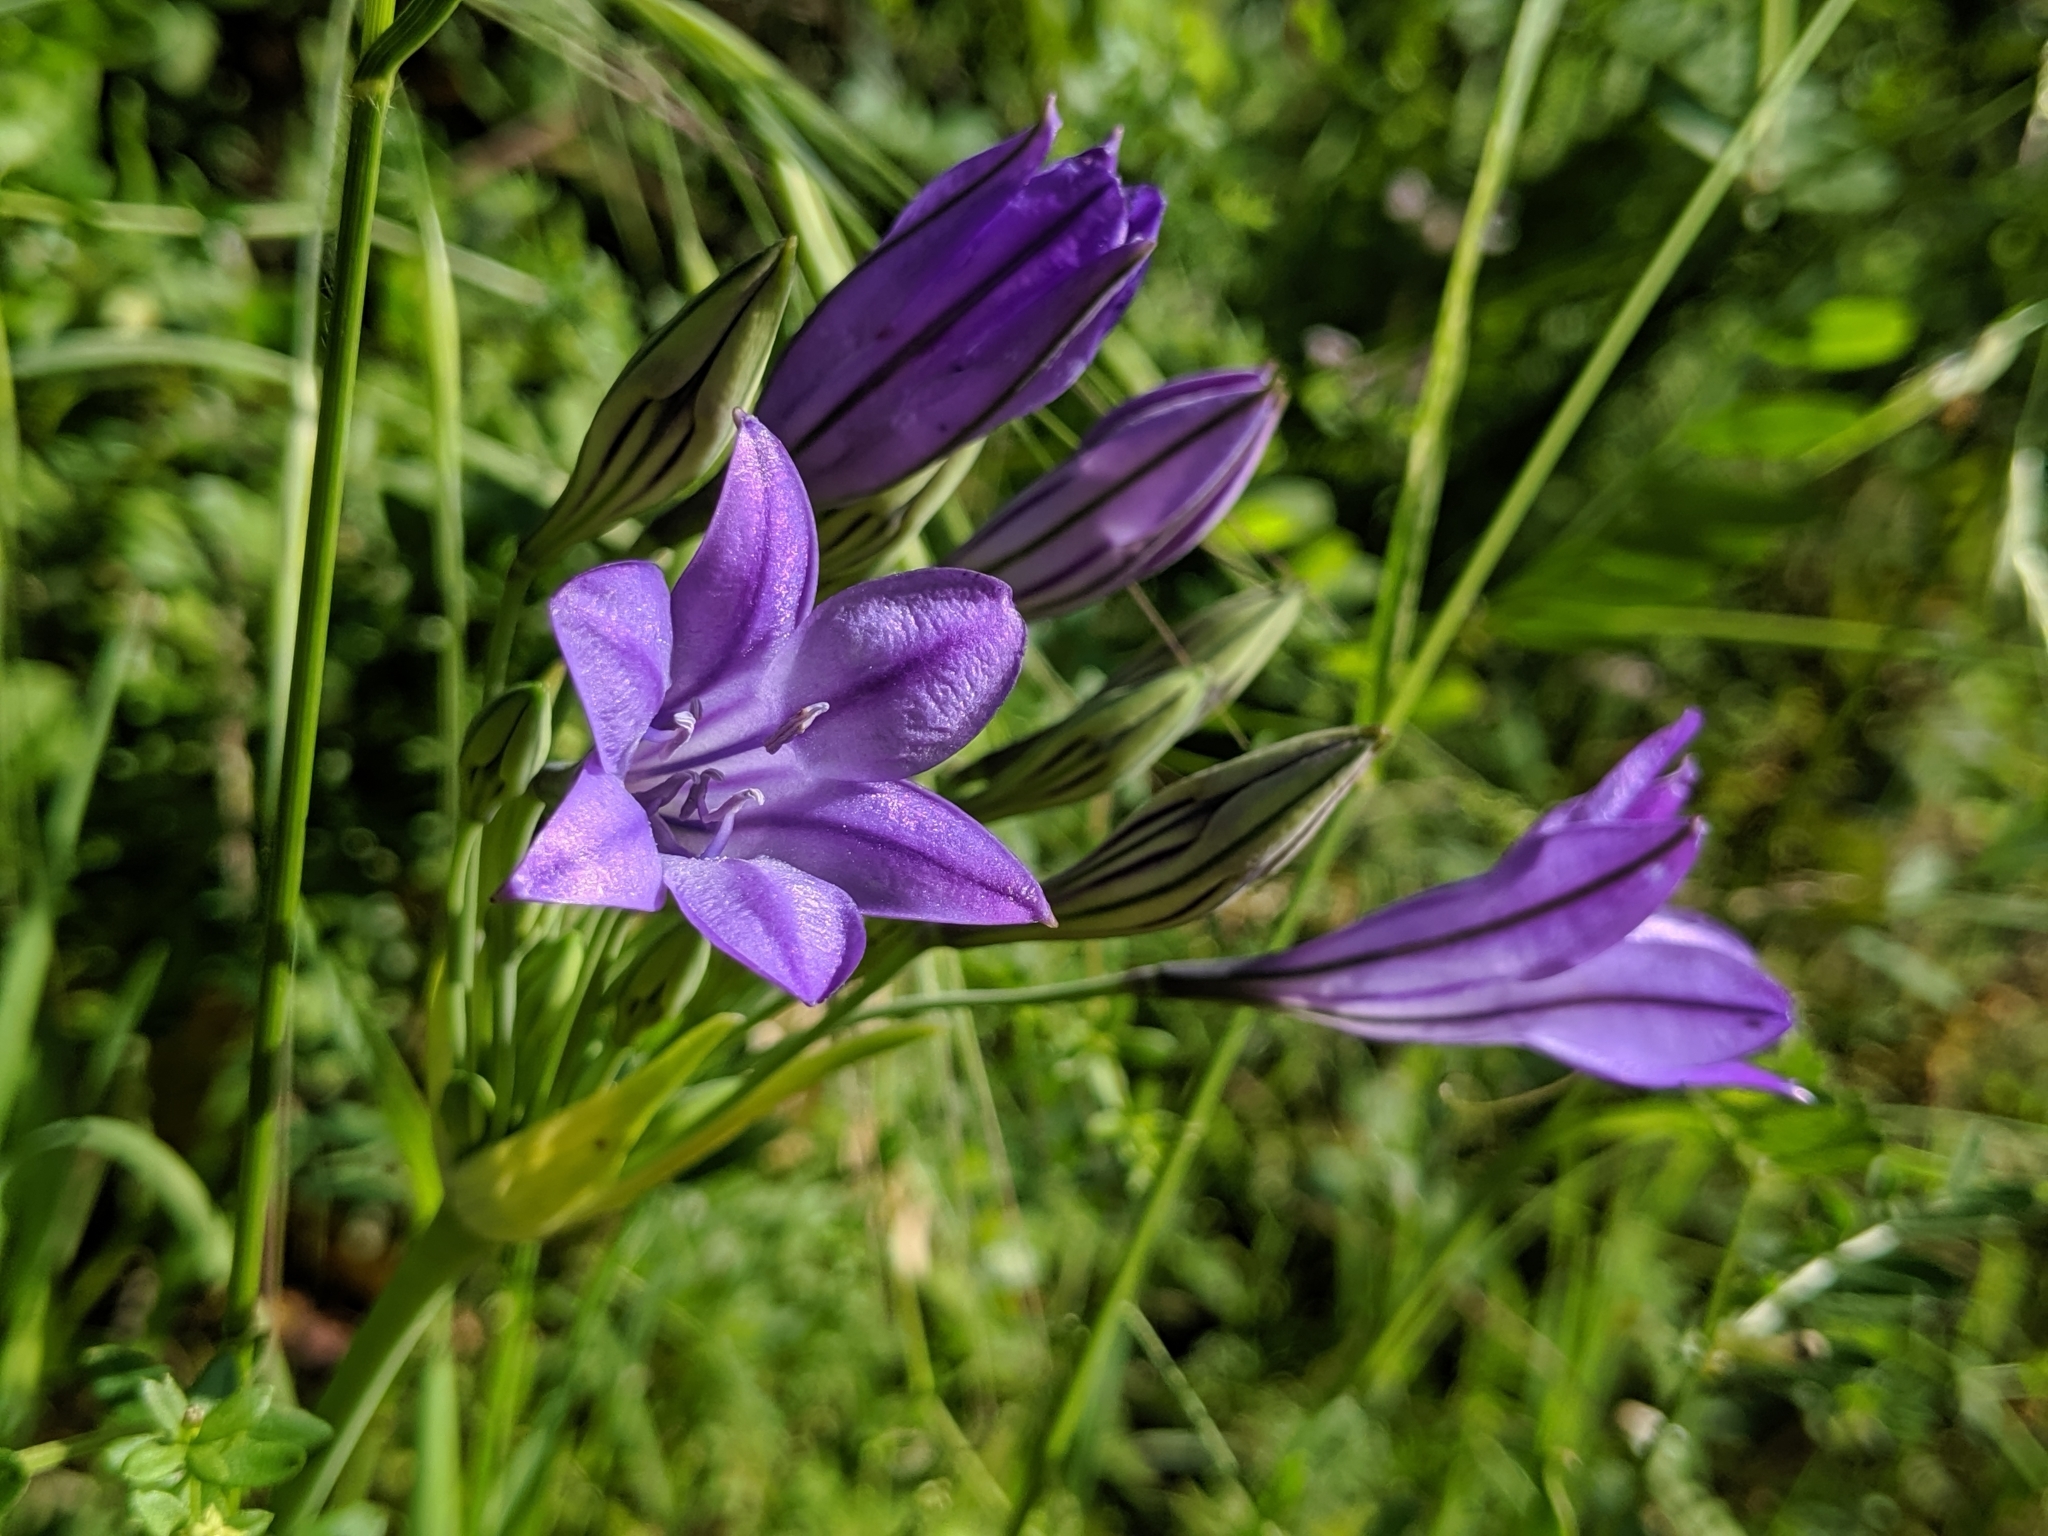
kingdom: Plantae
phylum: Tracheophyta
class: Liliopsida
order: Asparagales
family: Asparagaceae
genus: Triteleia
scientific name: Triteleia laxa
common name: Triplet-lily
